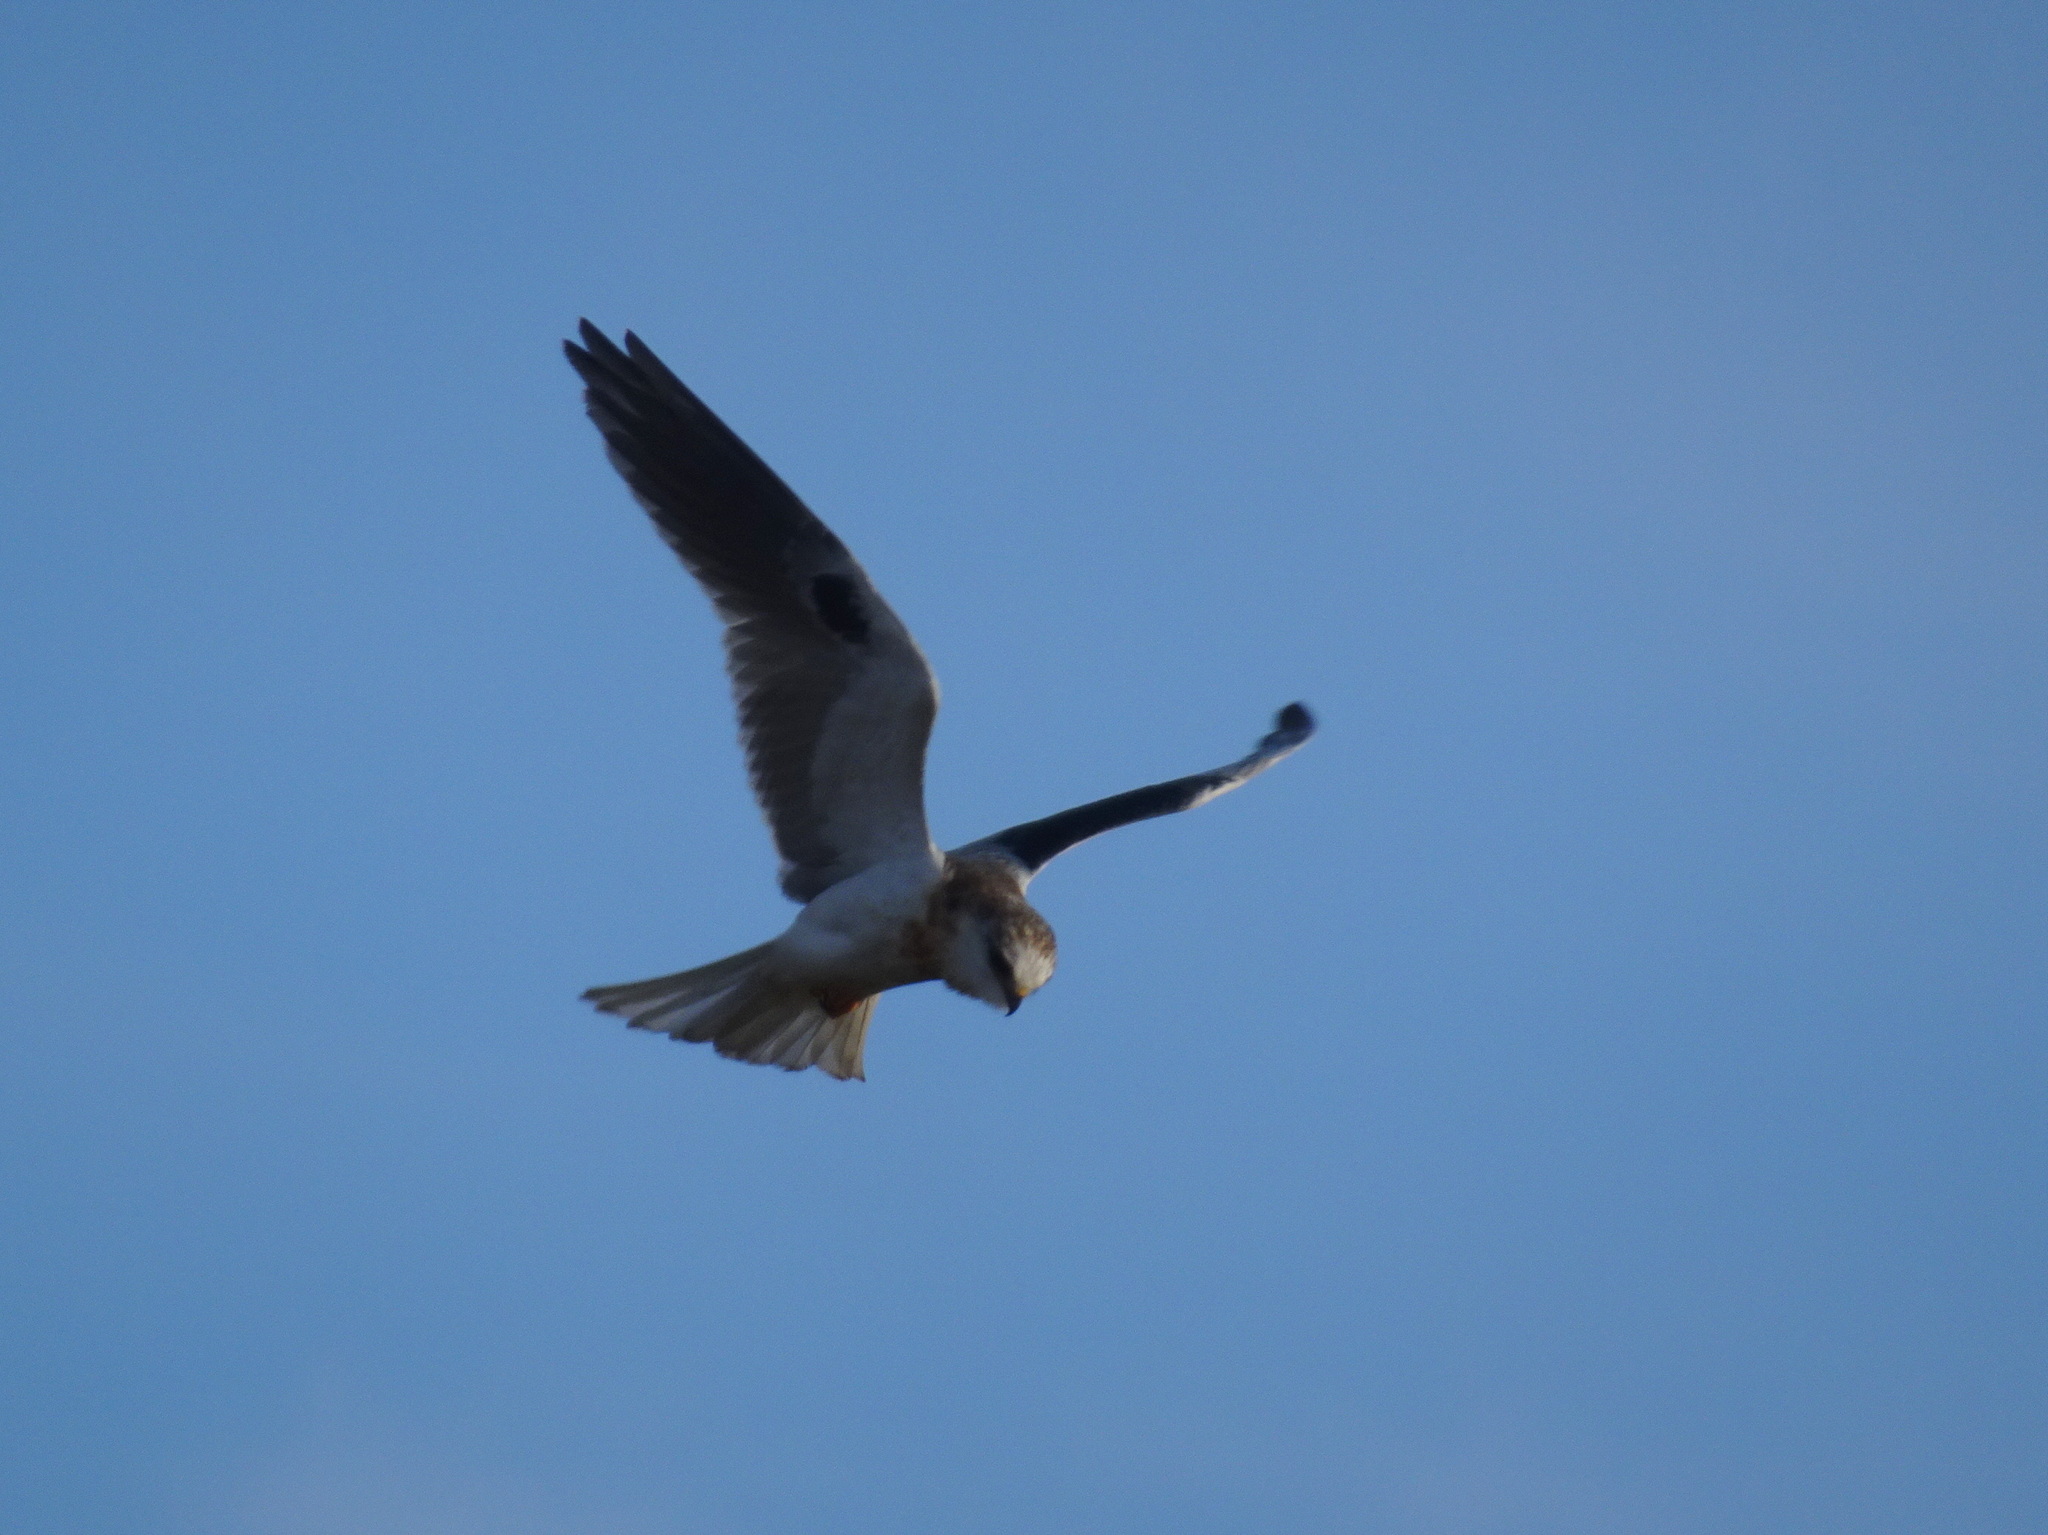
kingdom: Animalia
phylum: Chordata
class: Aves
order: Accipitriformes
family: Accipitridae
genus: Elanus
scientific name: Elanus leucurus
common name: White-tailed kite
